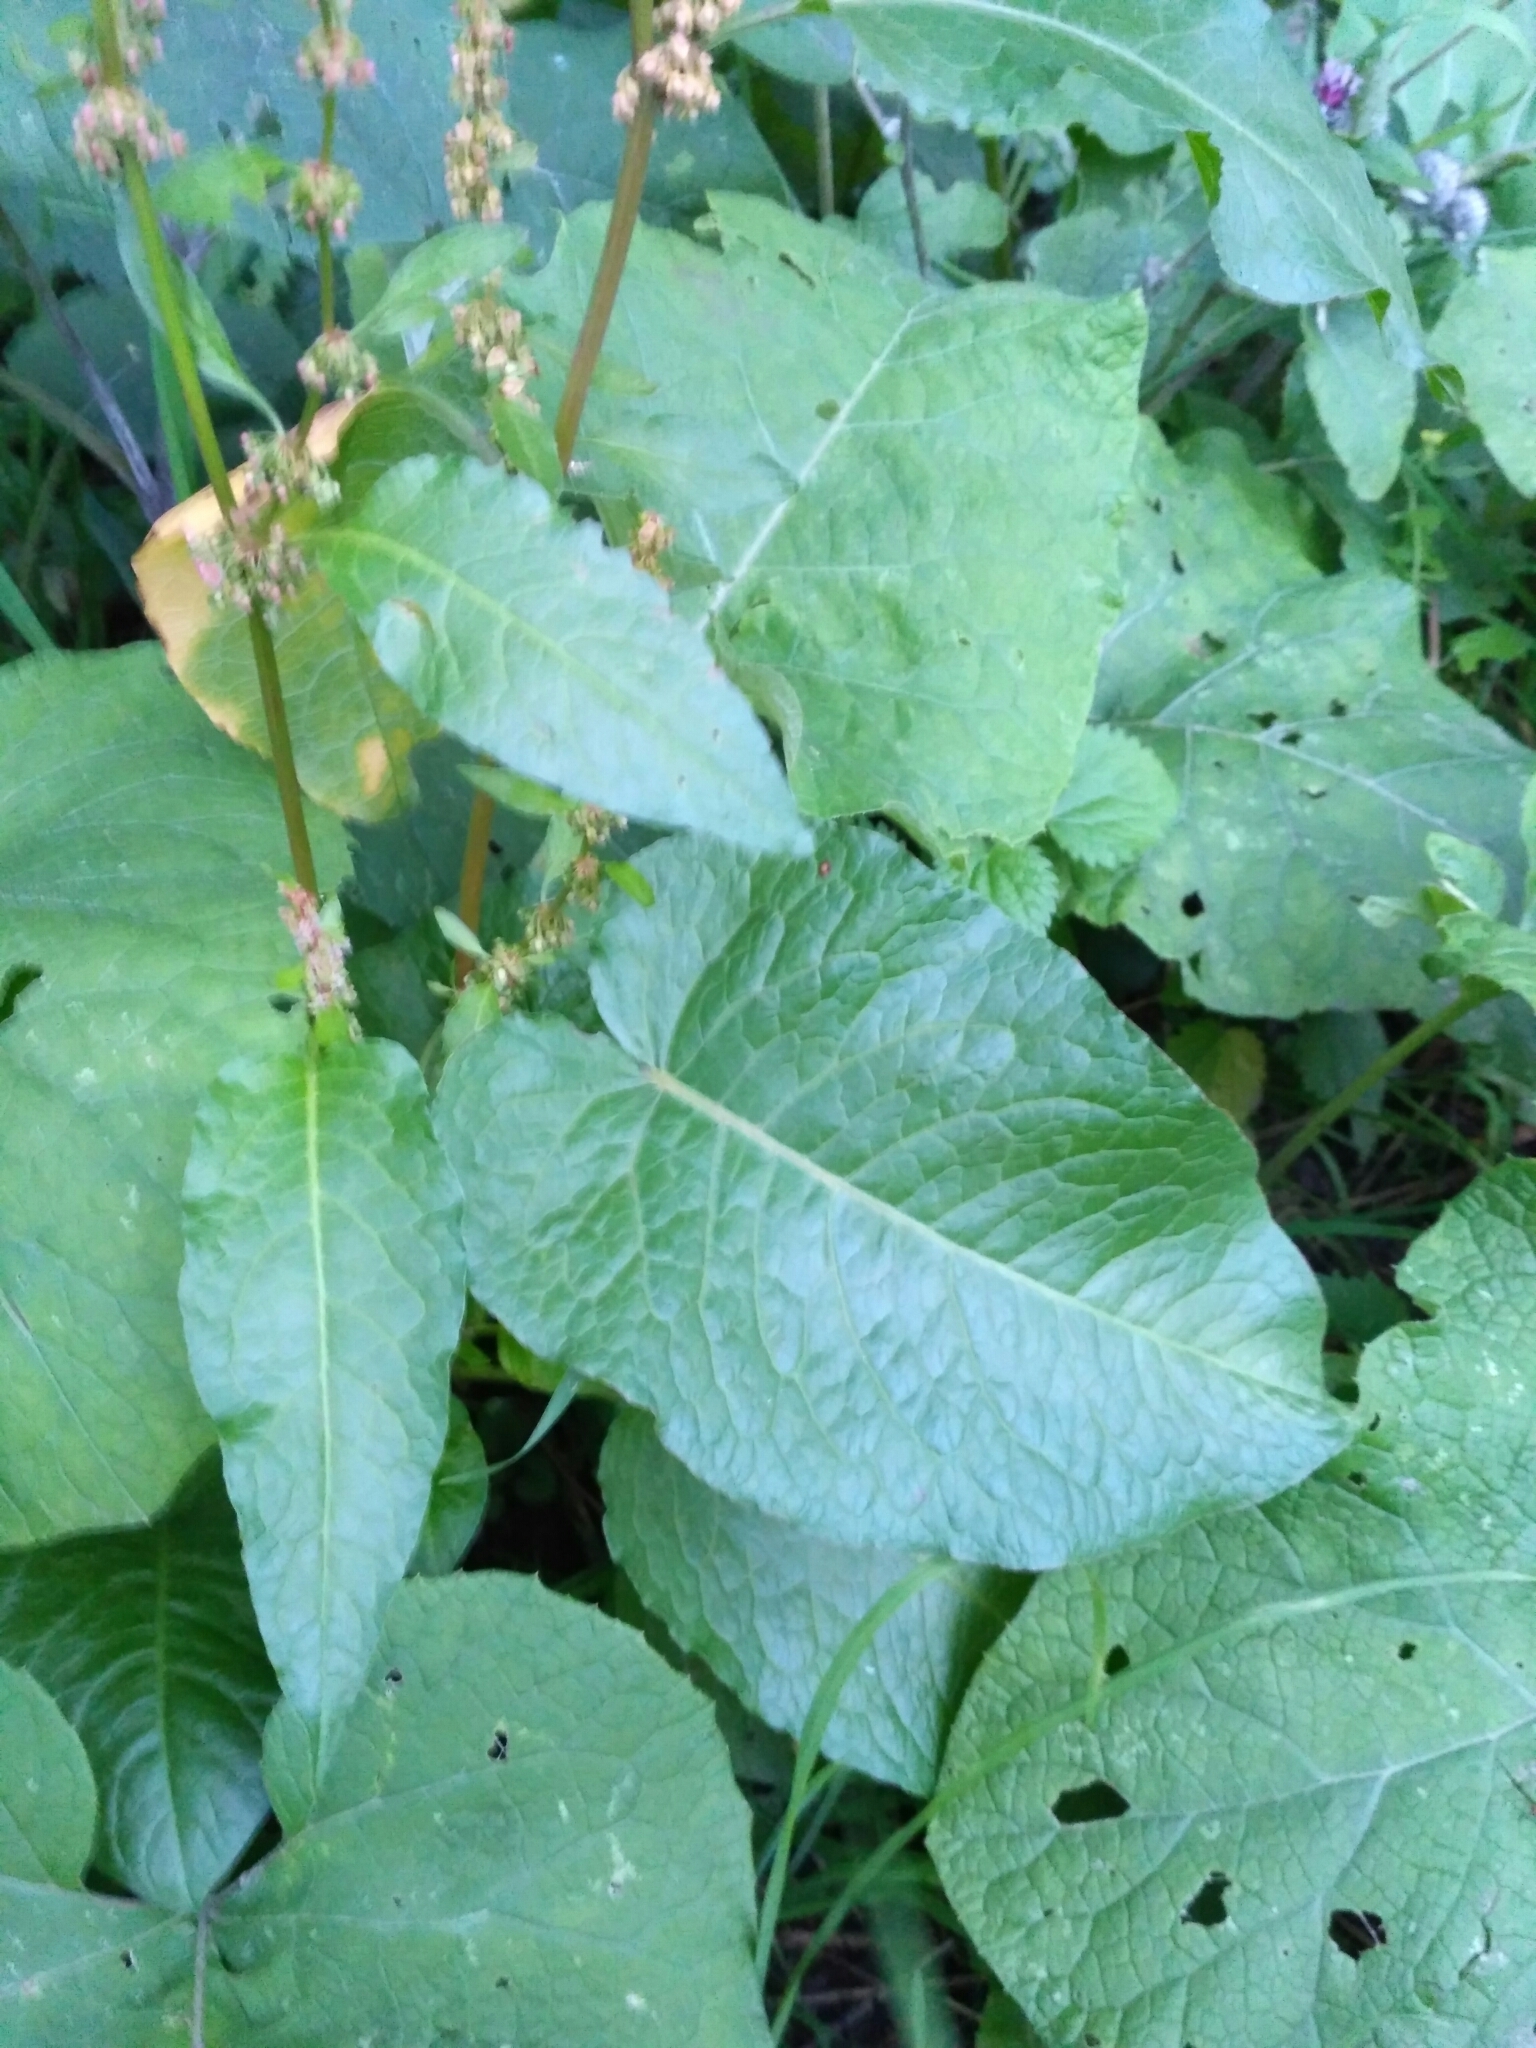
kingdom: Plantae
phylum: Tracheophyta
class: Magnoliopsida
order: Caryophyllales
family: Polygonaceae
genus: Rumex
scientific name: Rumex obtusifolius
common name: Bitter dock
